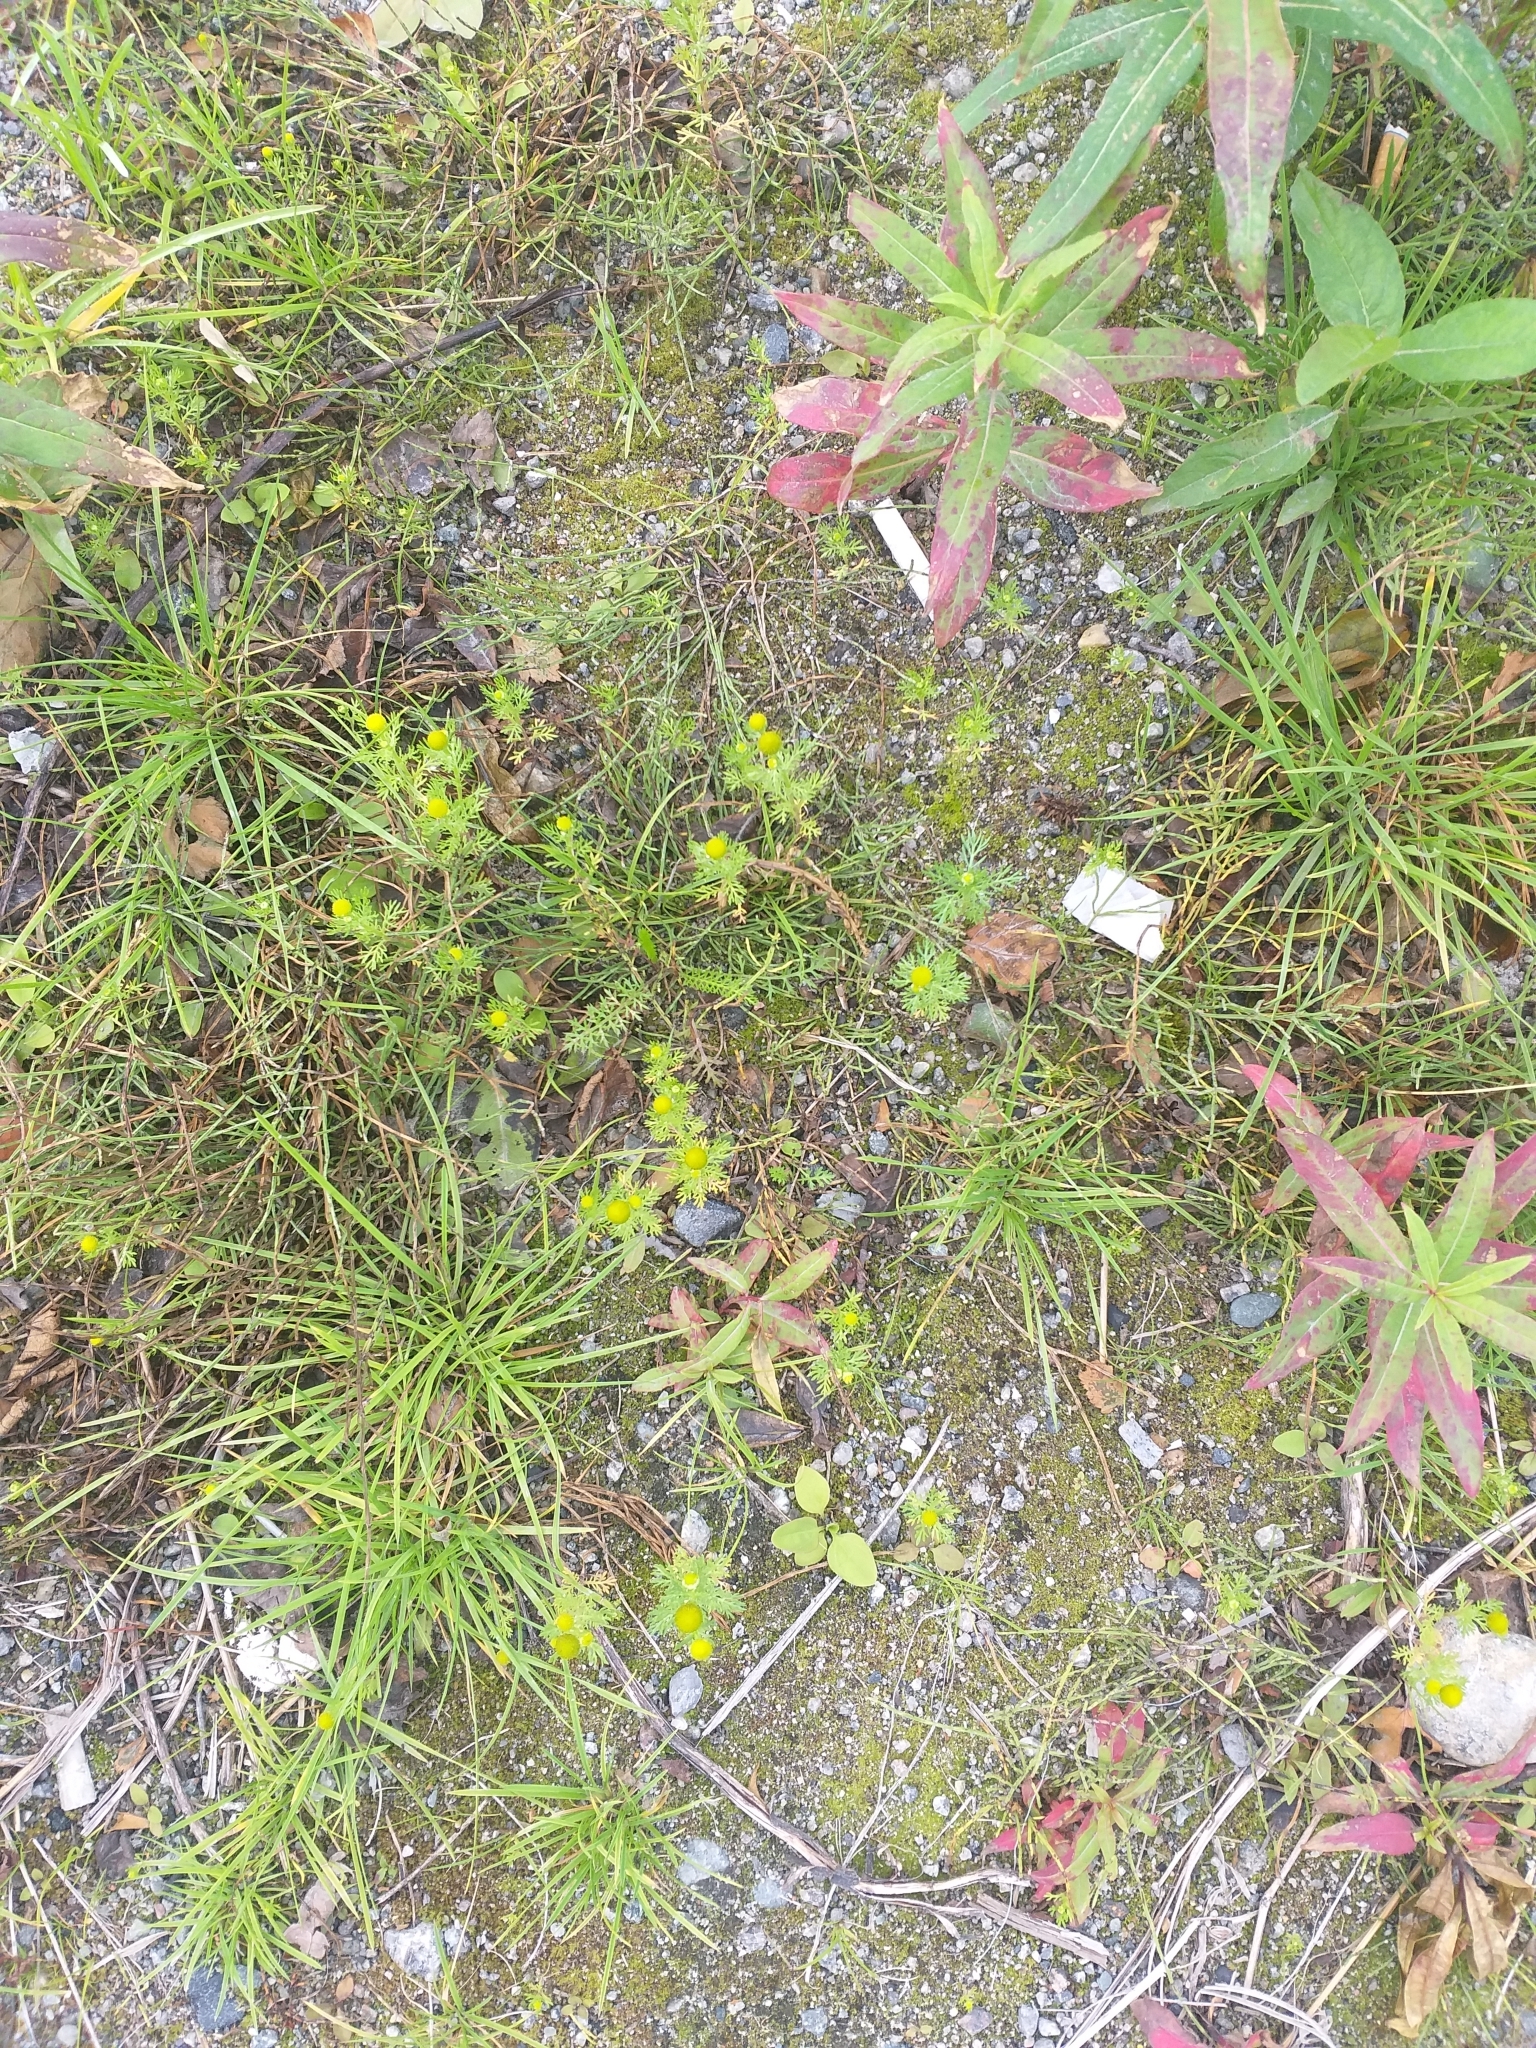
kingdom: Plantae
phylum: Tracheophyta
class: Magnoliopsida
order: Asterales
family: Asteraceae
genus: Matricaria
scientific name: Matricaria discoidea
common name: Disc mayweed
